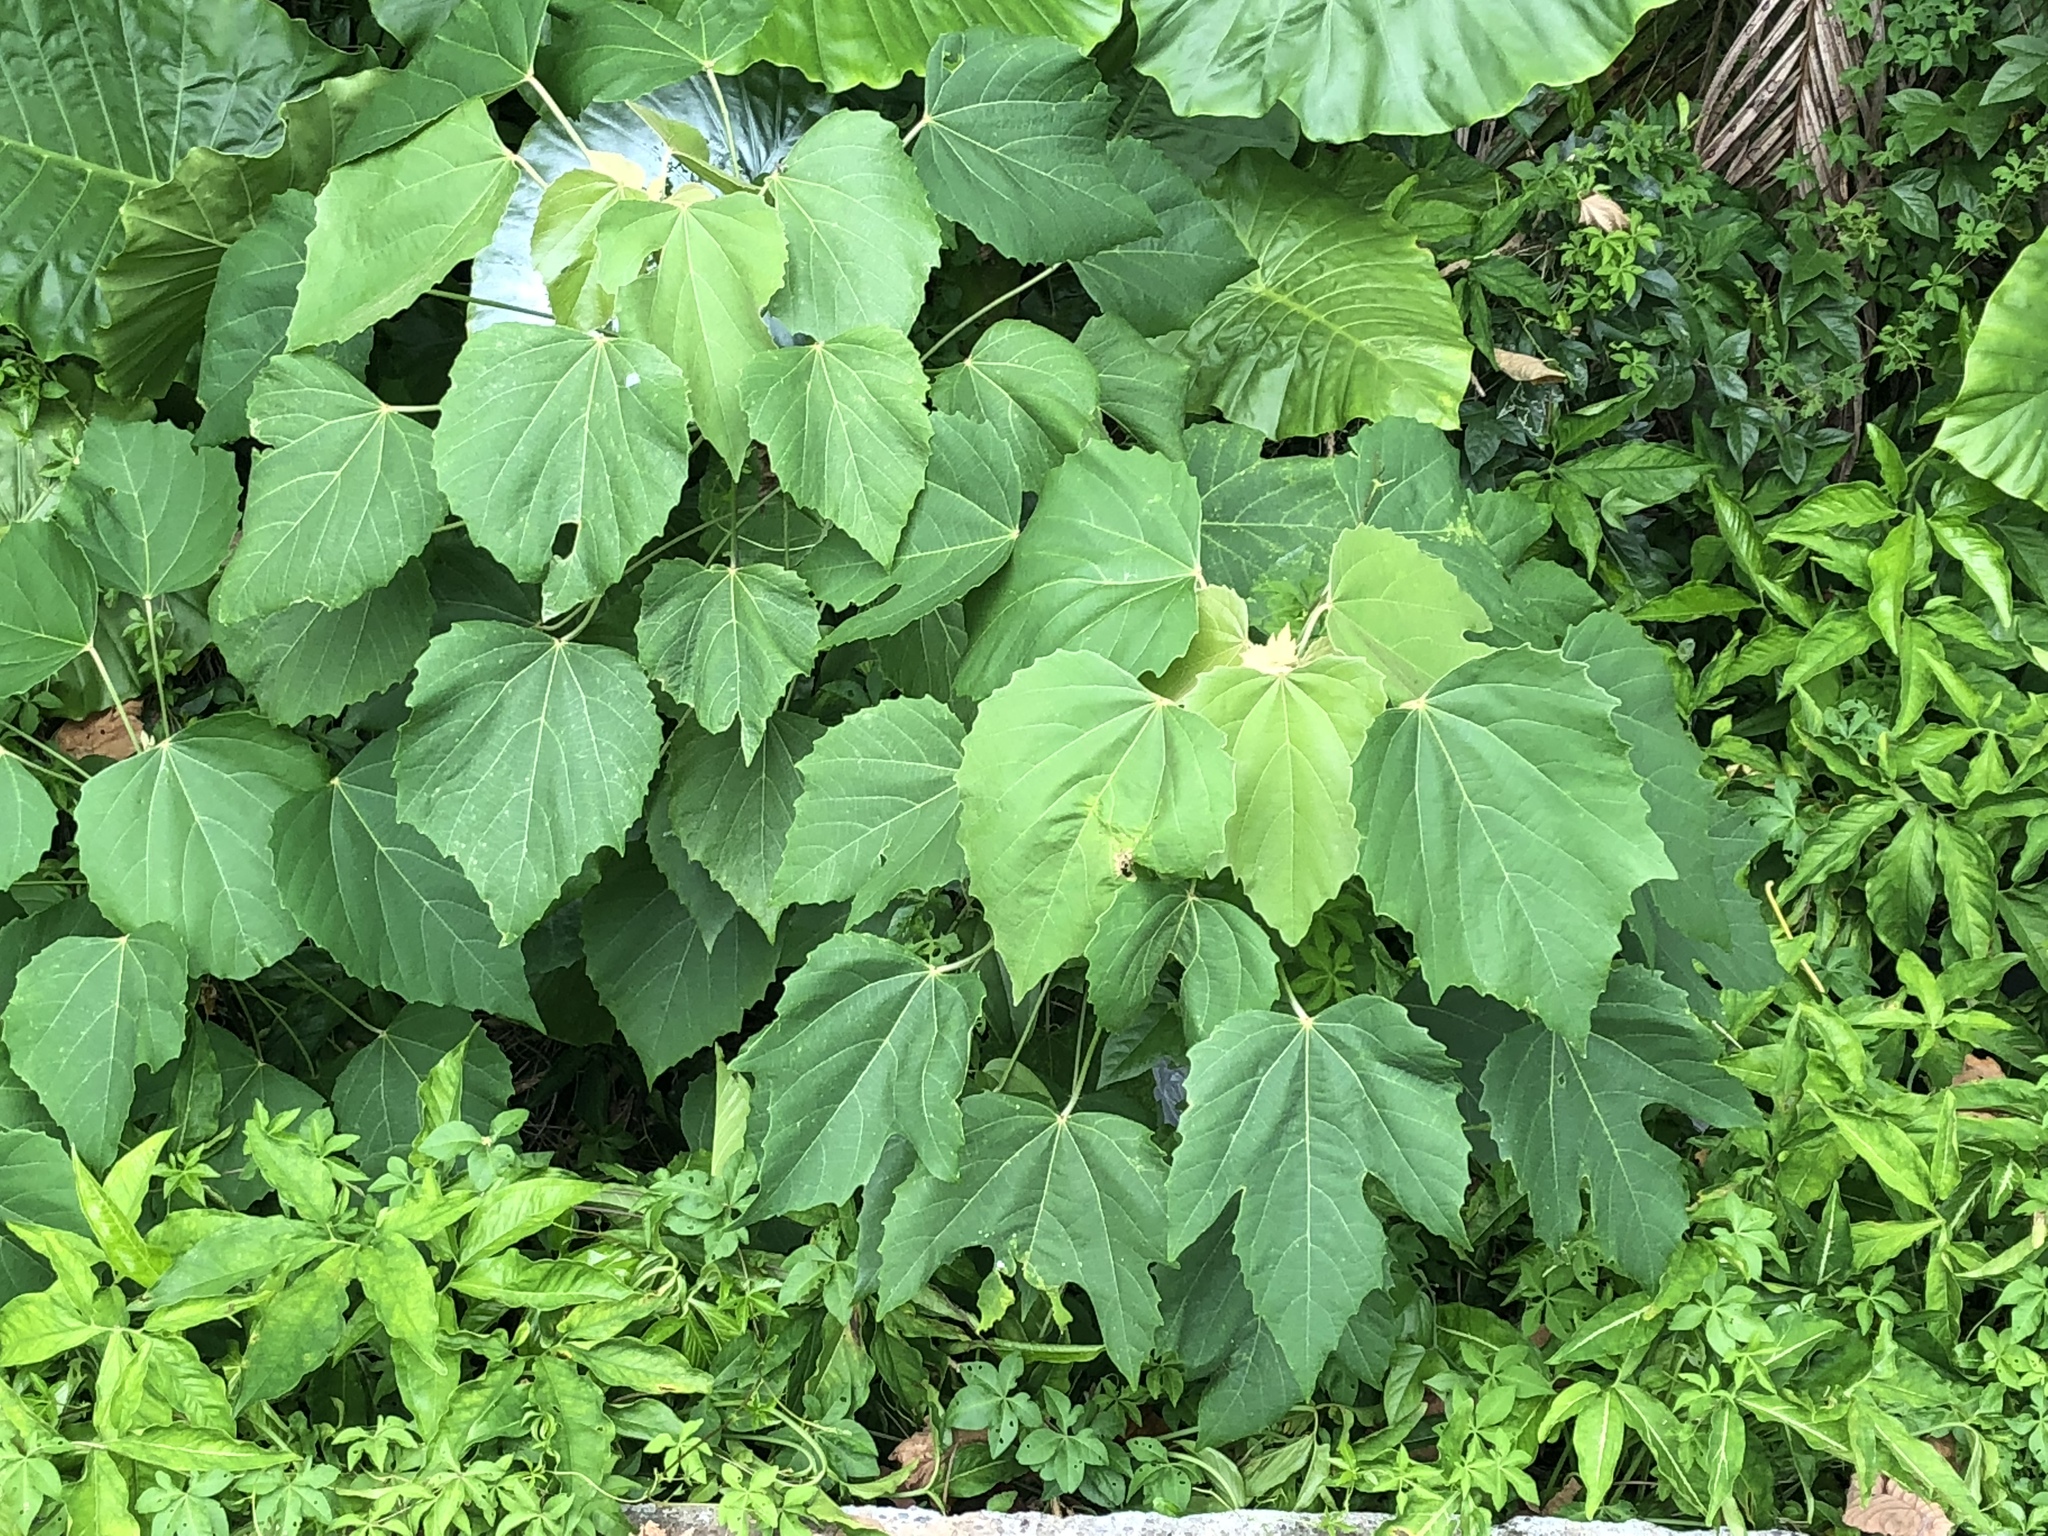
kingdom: Plantae
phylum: Tracheophyta
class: Magnoliopsida
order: Malpighiales
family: Euphorbiaceae
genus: Melanolepis
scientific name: Melanolepis multiglandulosa
